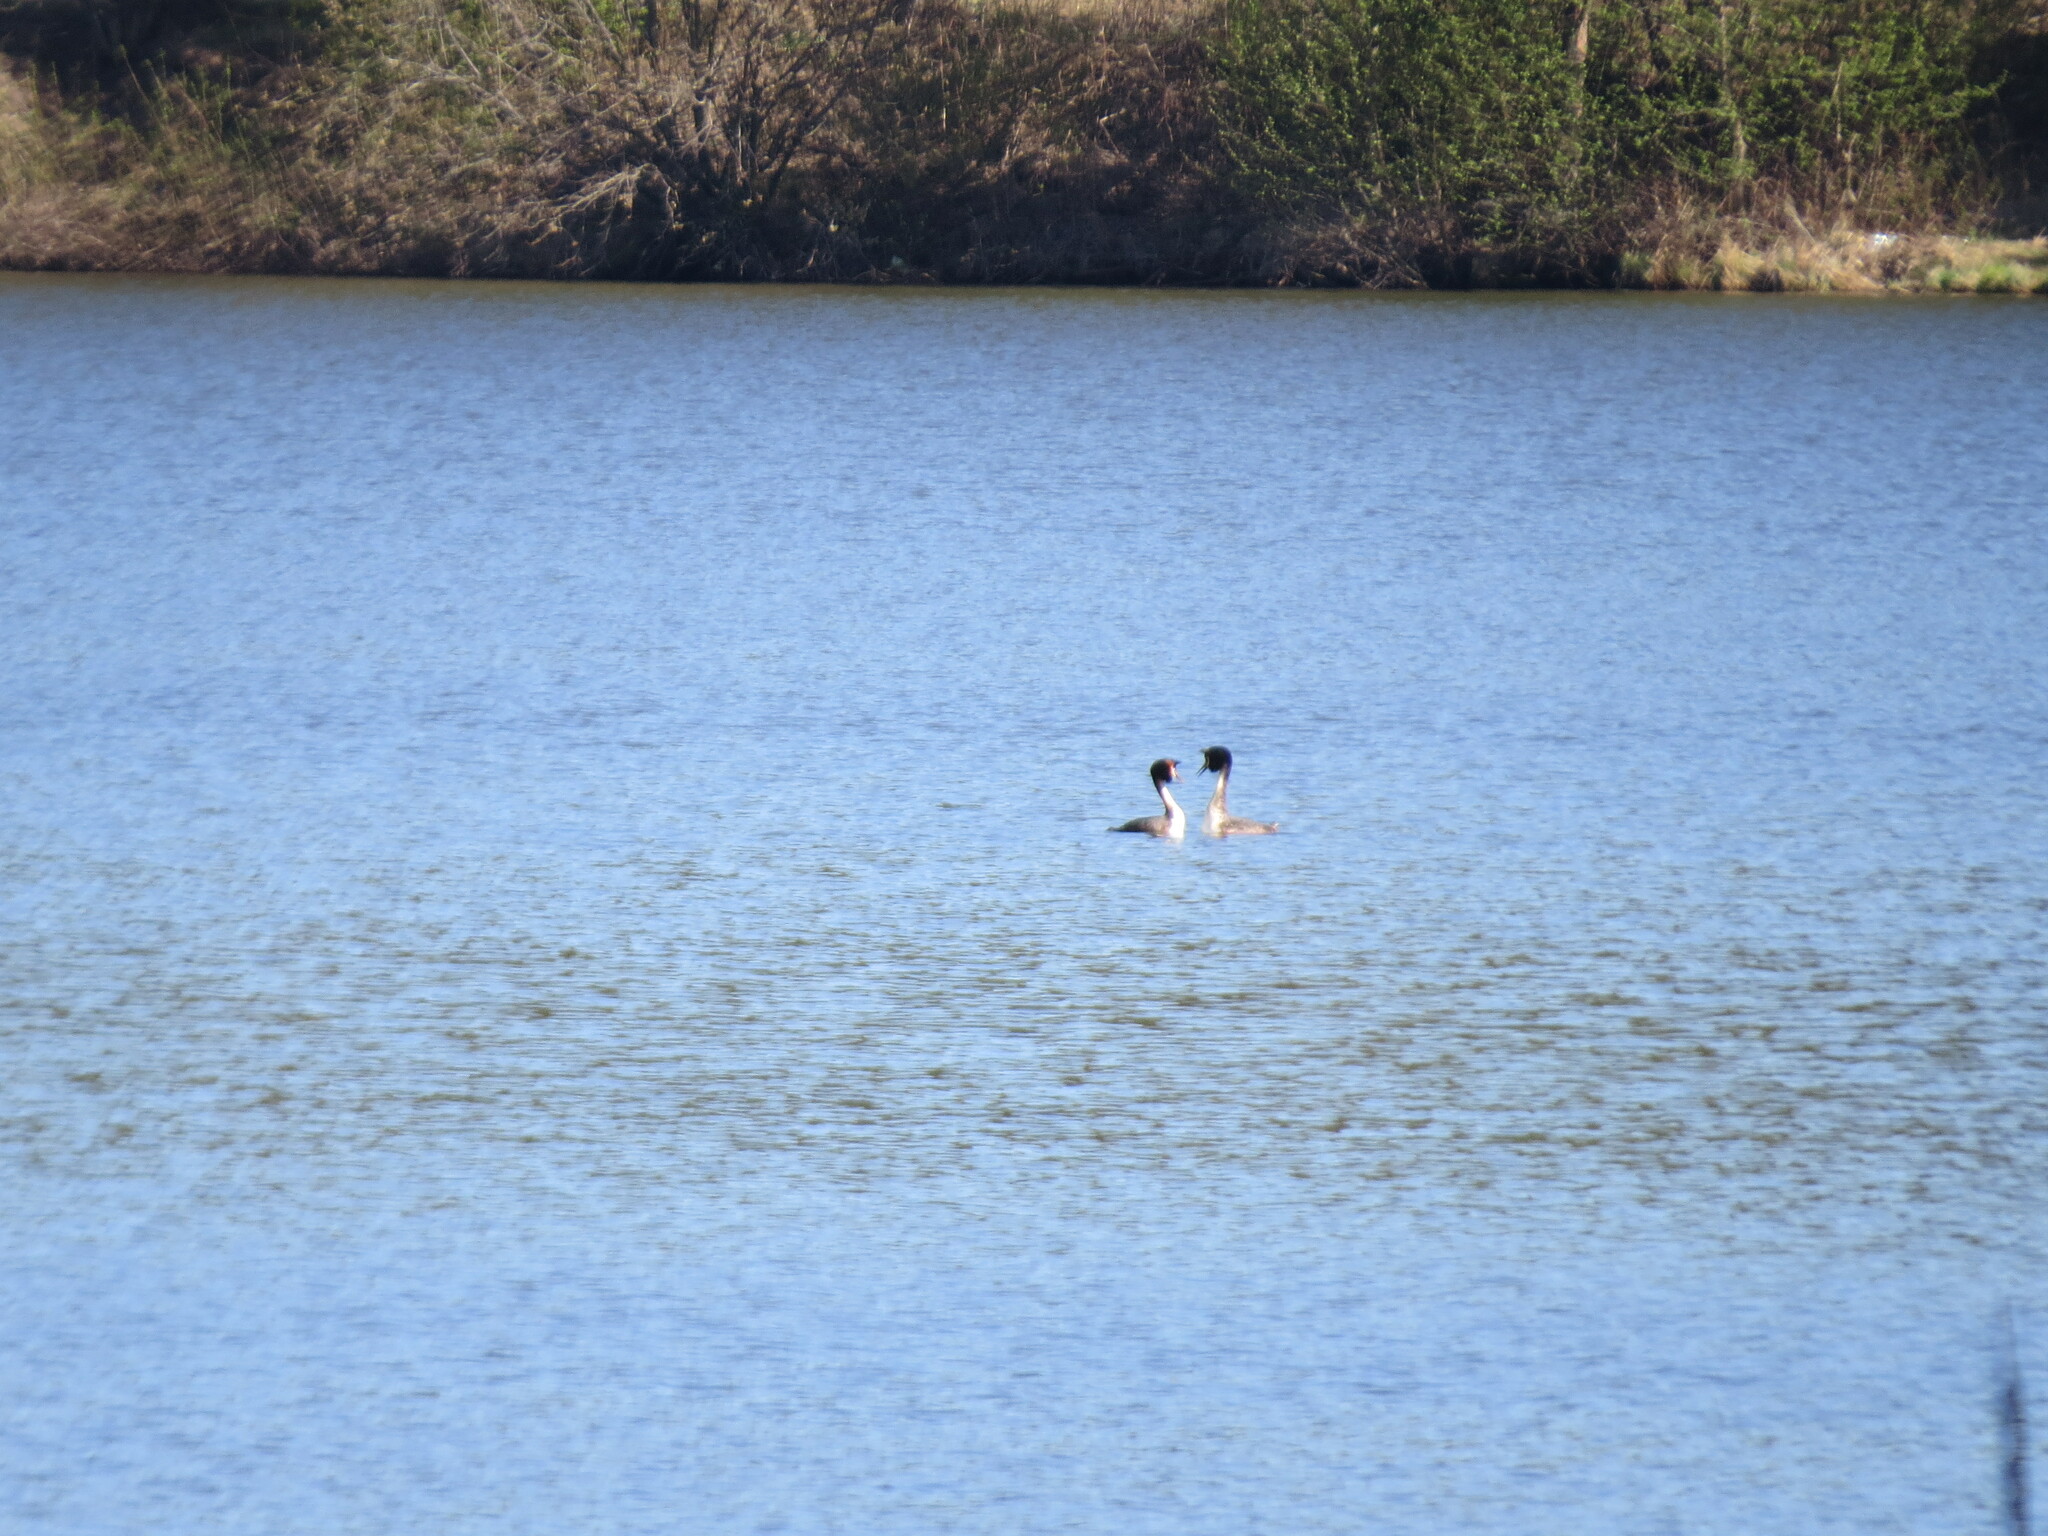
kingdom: Animalia
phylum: Chordata
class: Aves
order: Podicipediformes
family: Podicipedidae
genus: Podiceps
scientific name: Podiceps cristatus
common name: Great crested grebe
